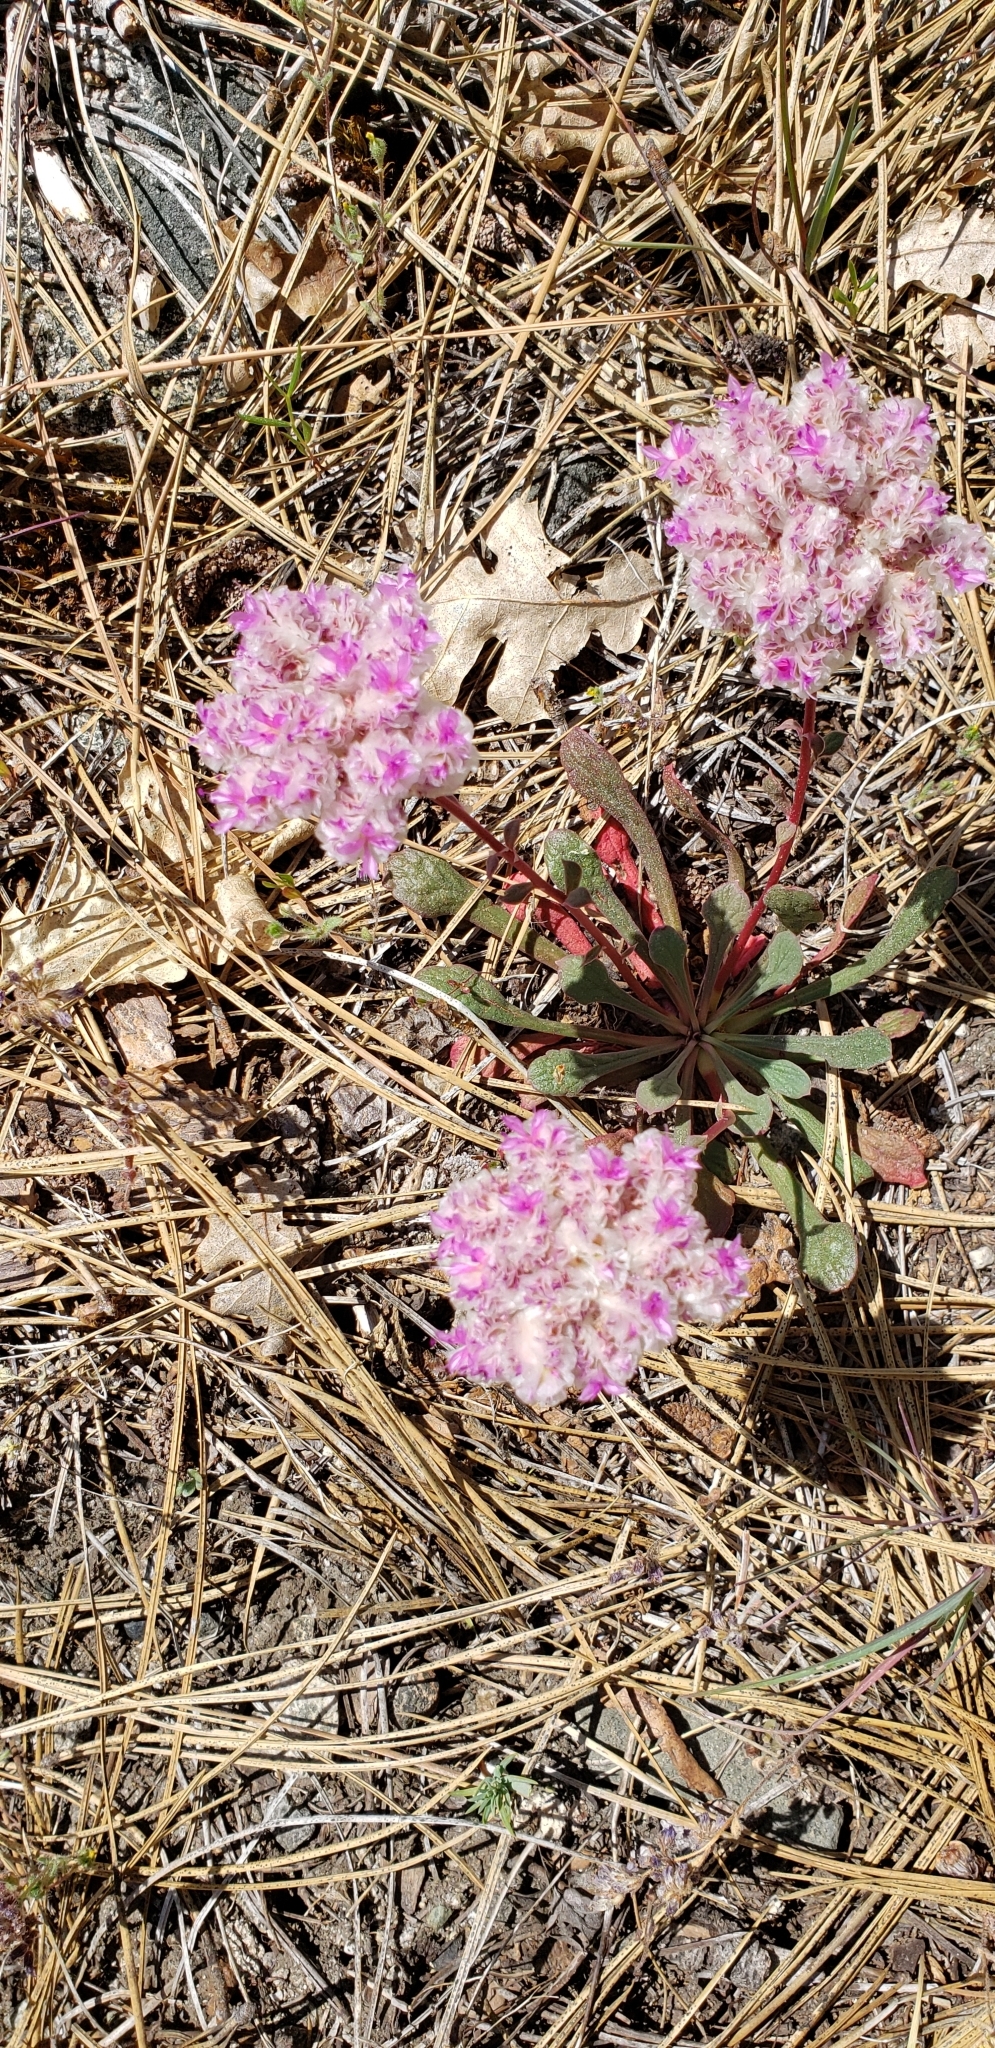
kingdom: Plantae
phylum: Tracheophyta
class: Magnoliopsida
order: Caryophyllales
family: Montiaceae
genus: Calyptridium
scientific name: Calyptridium monospermum
